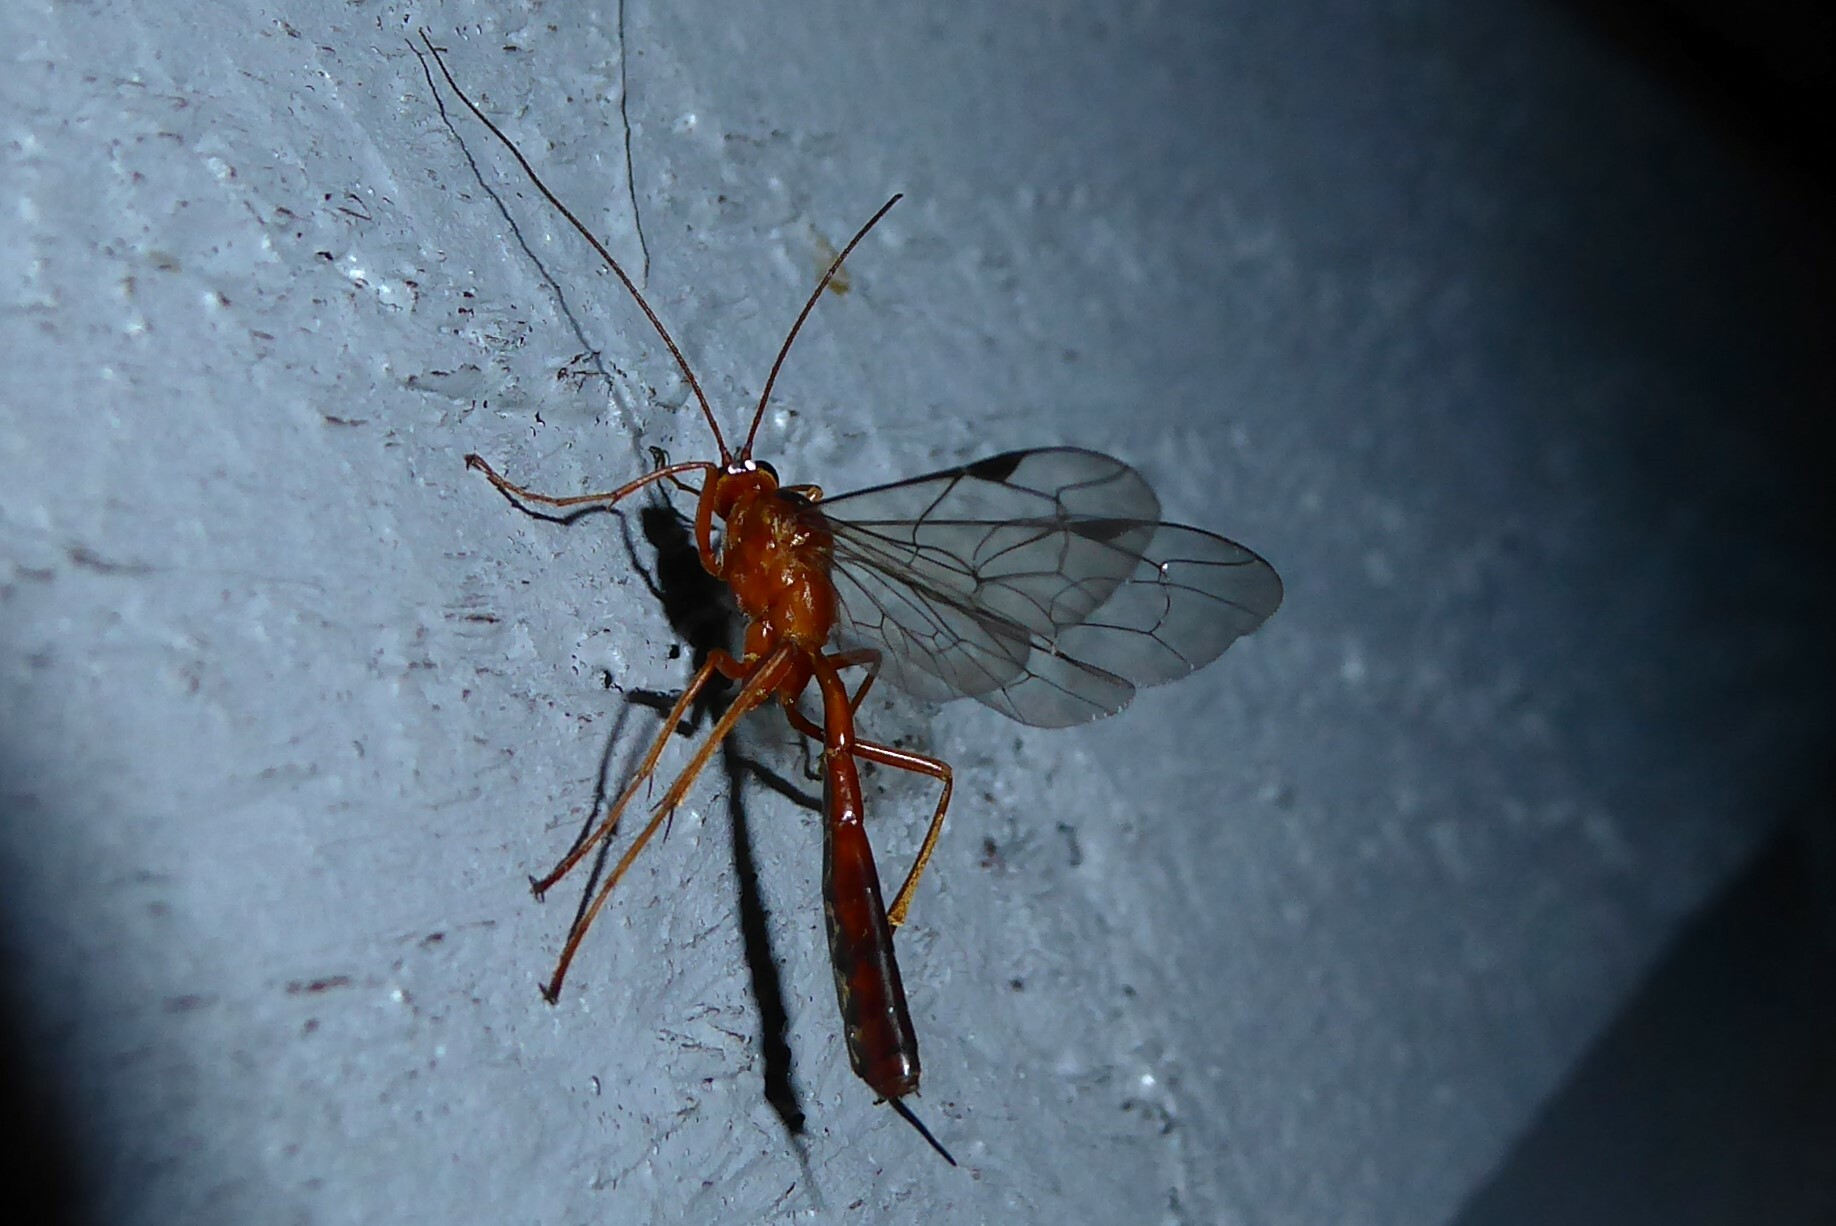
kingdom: Animalia
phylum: Arthropoda
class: Insecta
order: Hymenoptera
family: Ichneumonidae
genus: Netelia
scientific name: Netelia ephippiata
